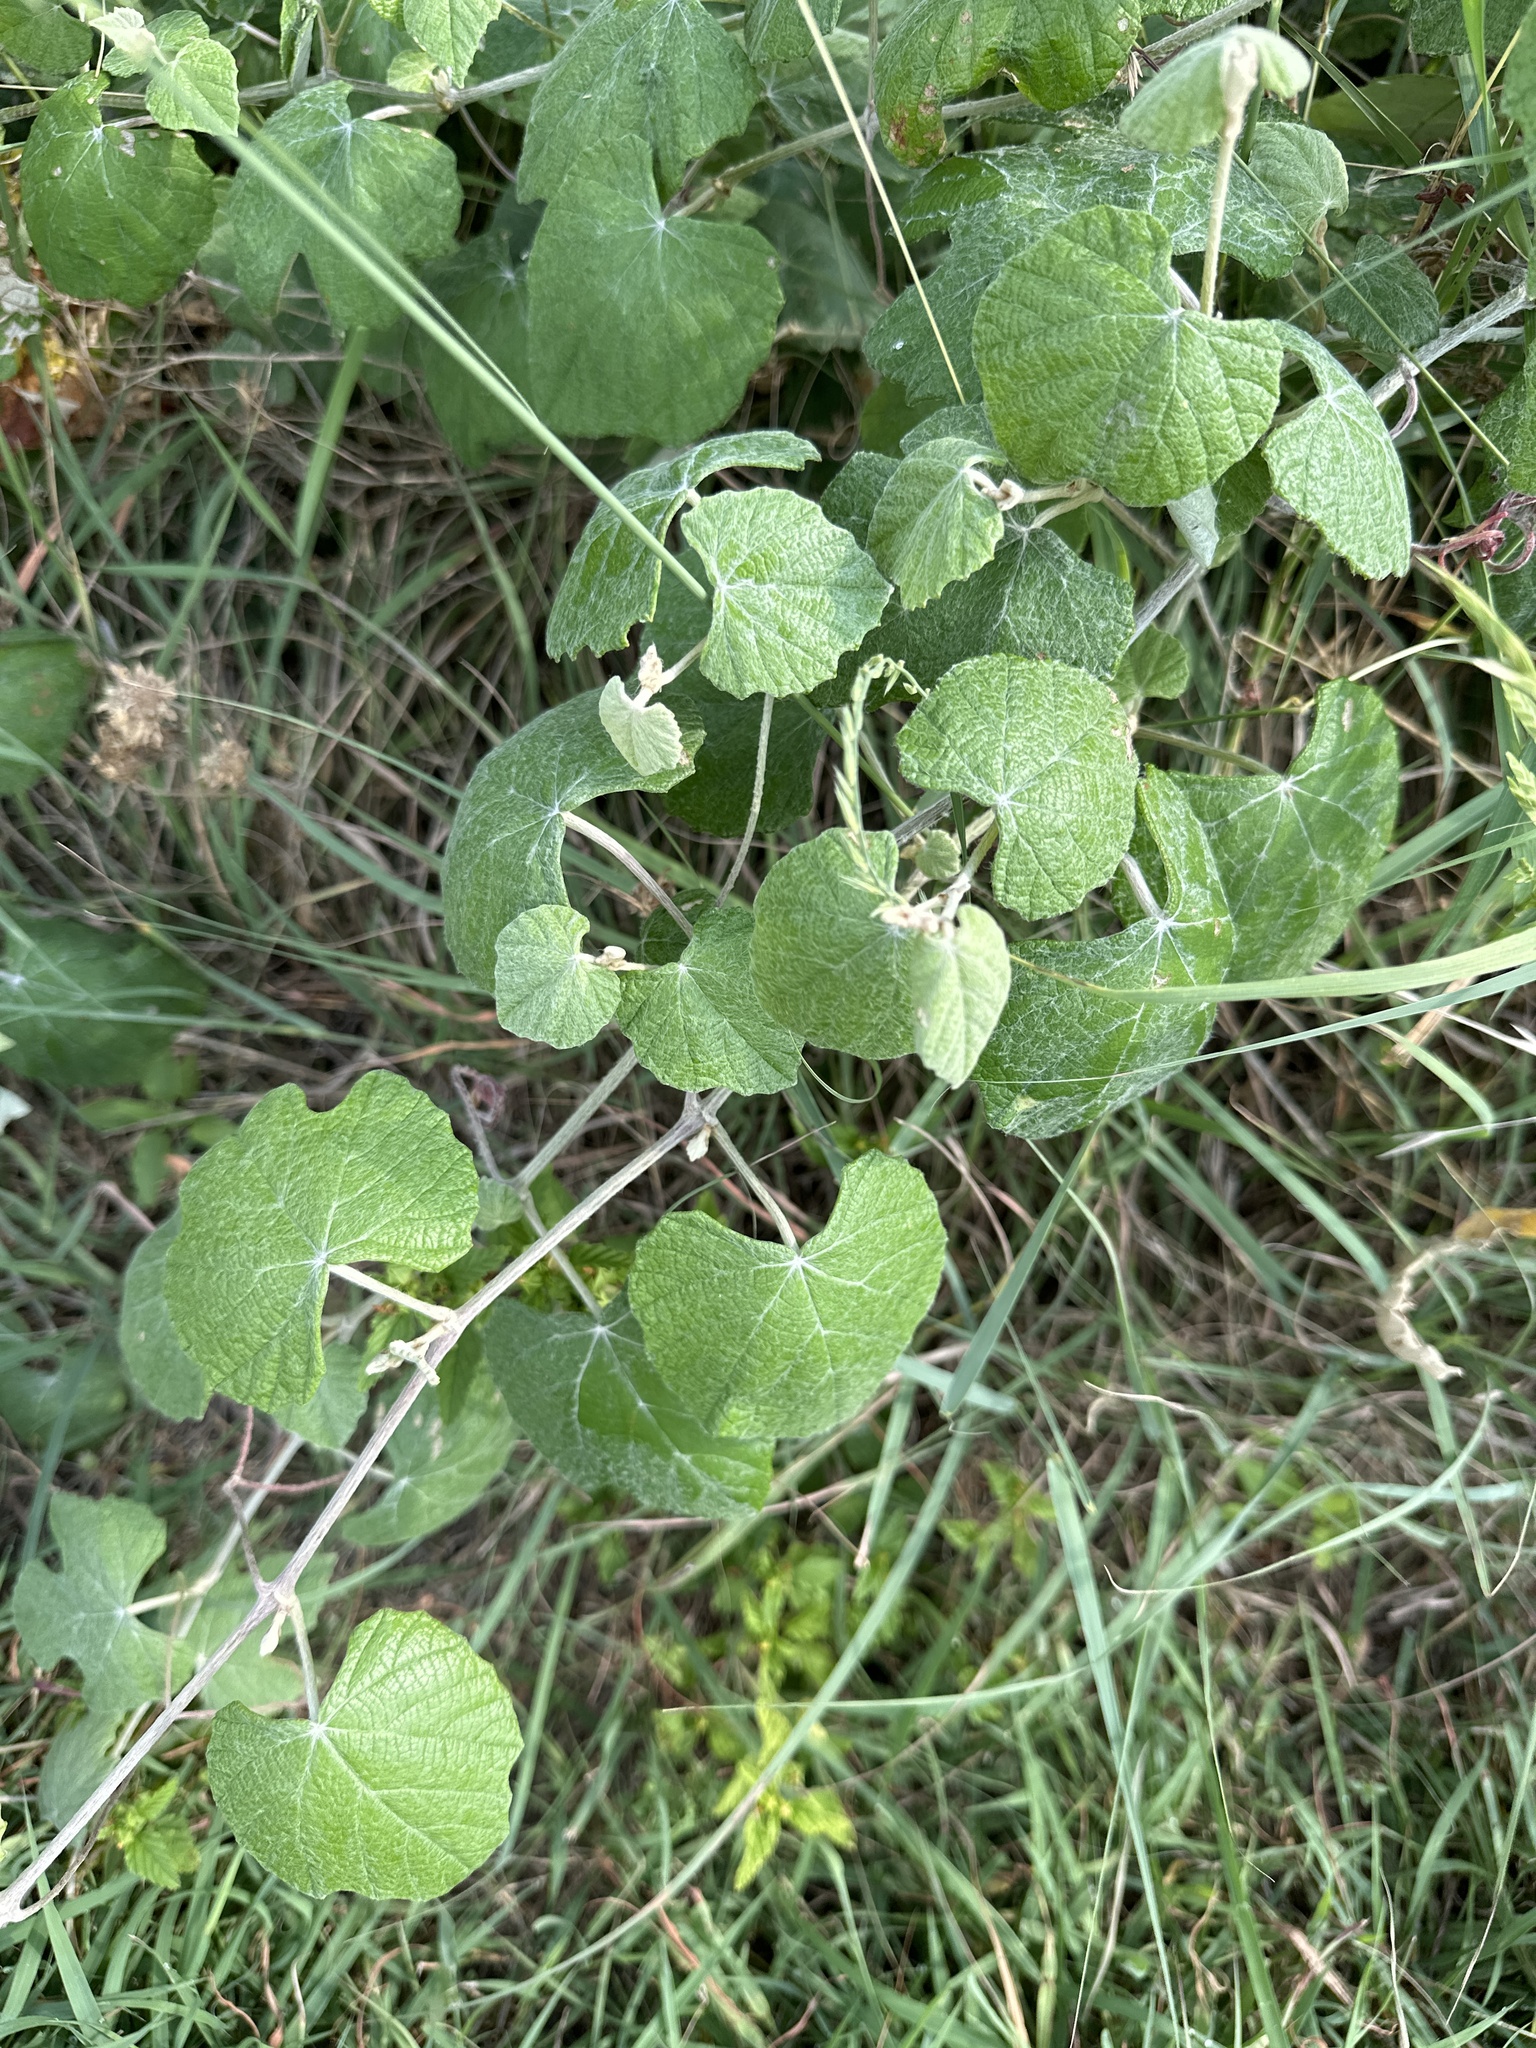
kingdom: Plantae
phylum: Tracheophyta
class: Magnoliopsida
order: Vitales
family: Vitaceae
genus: Vitis
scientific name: Vitis mustangensis
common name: Mustang grape
